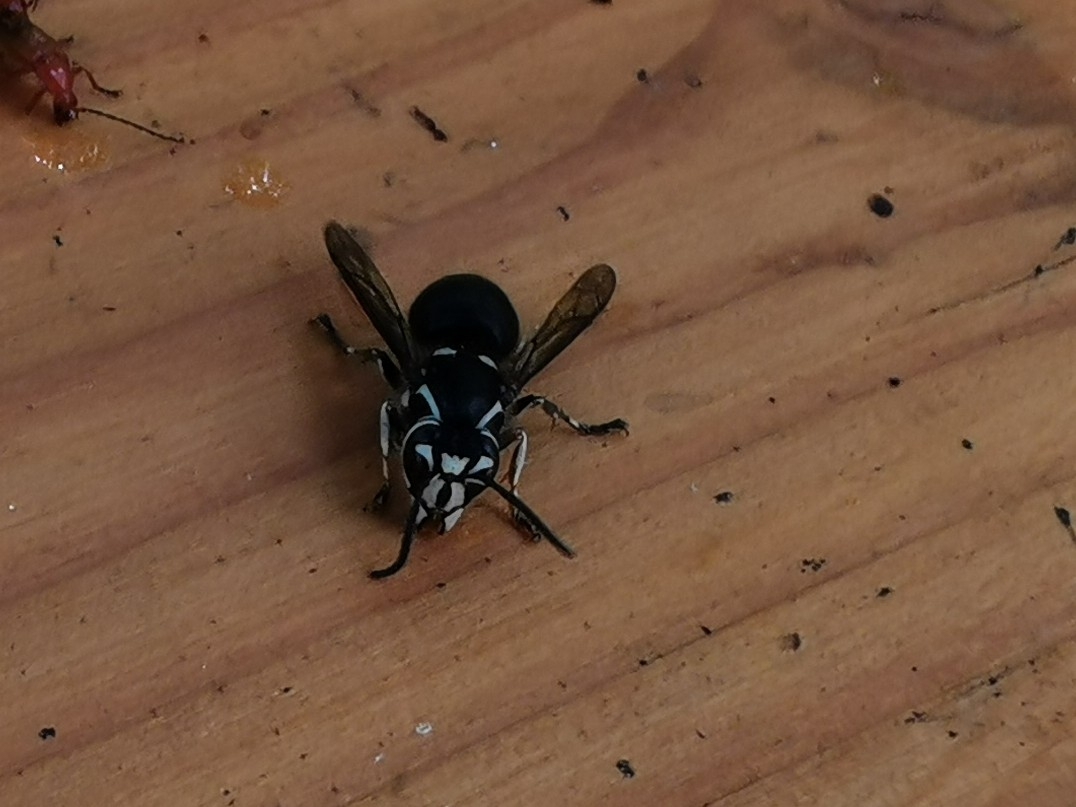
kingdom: Animalia
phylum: Arthropoda
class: Insecta
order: Hymenoptera
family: Vespidae
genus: Dolichovespula
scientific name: Dolichovespula maculata
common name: Bald-faced hornet
